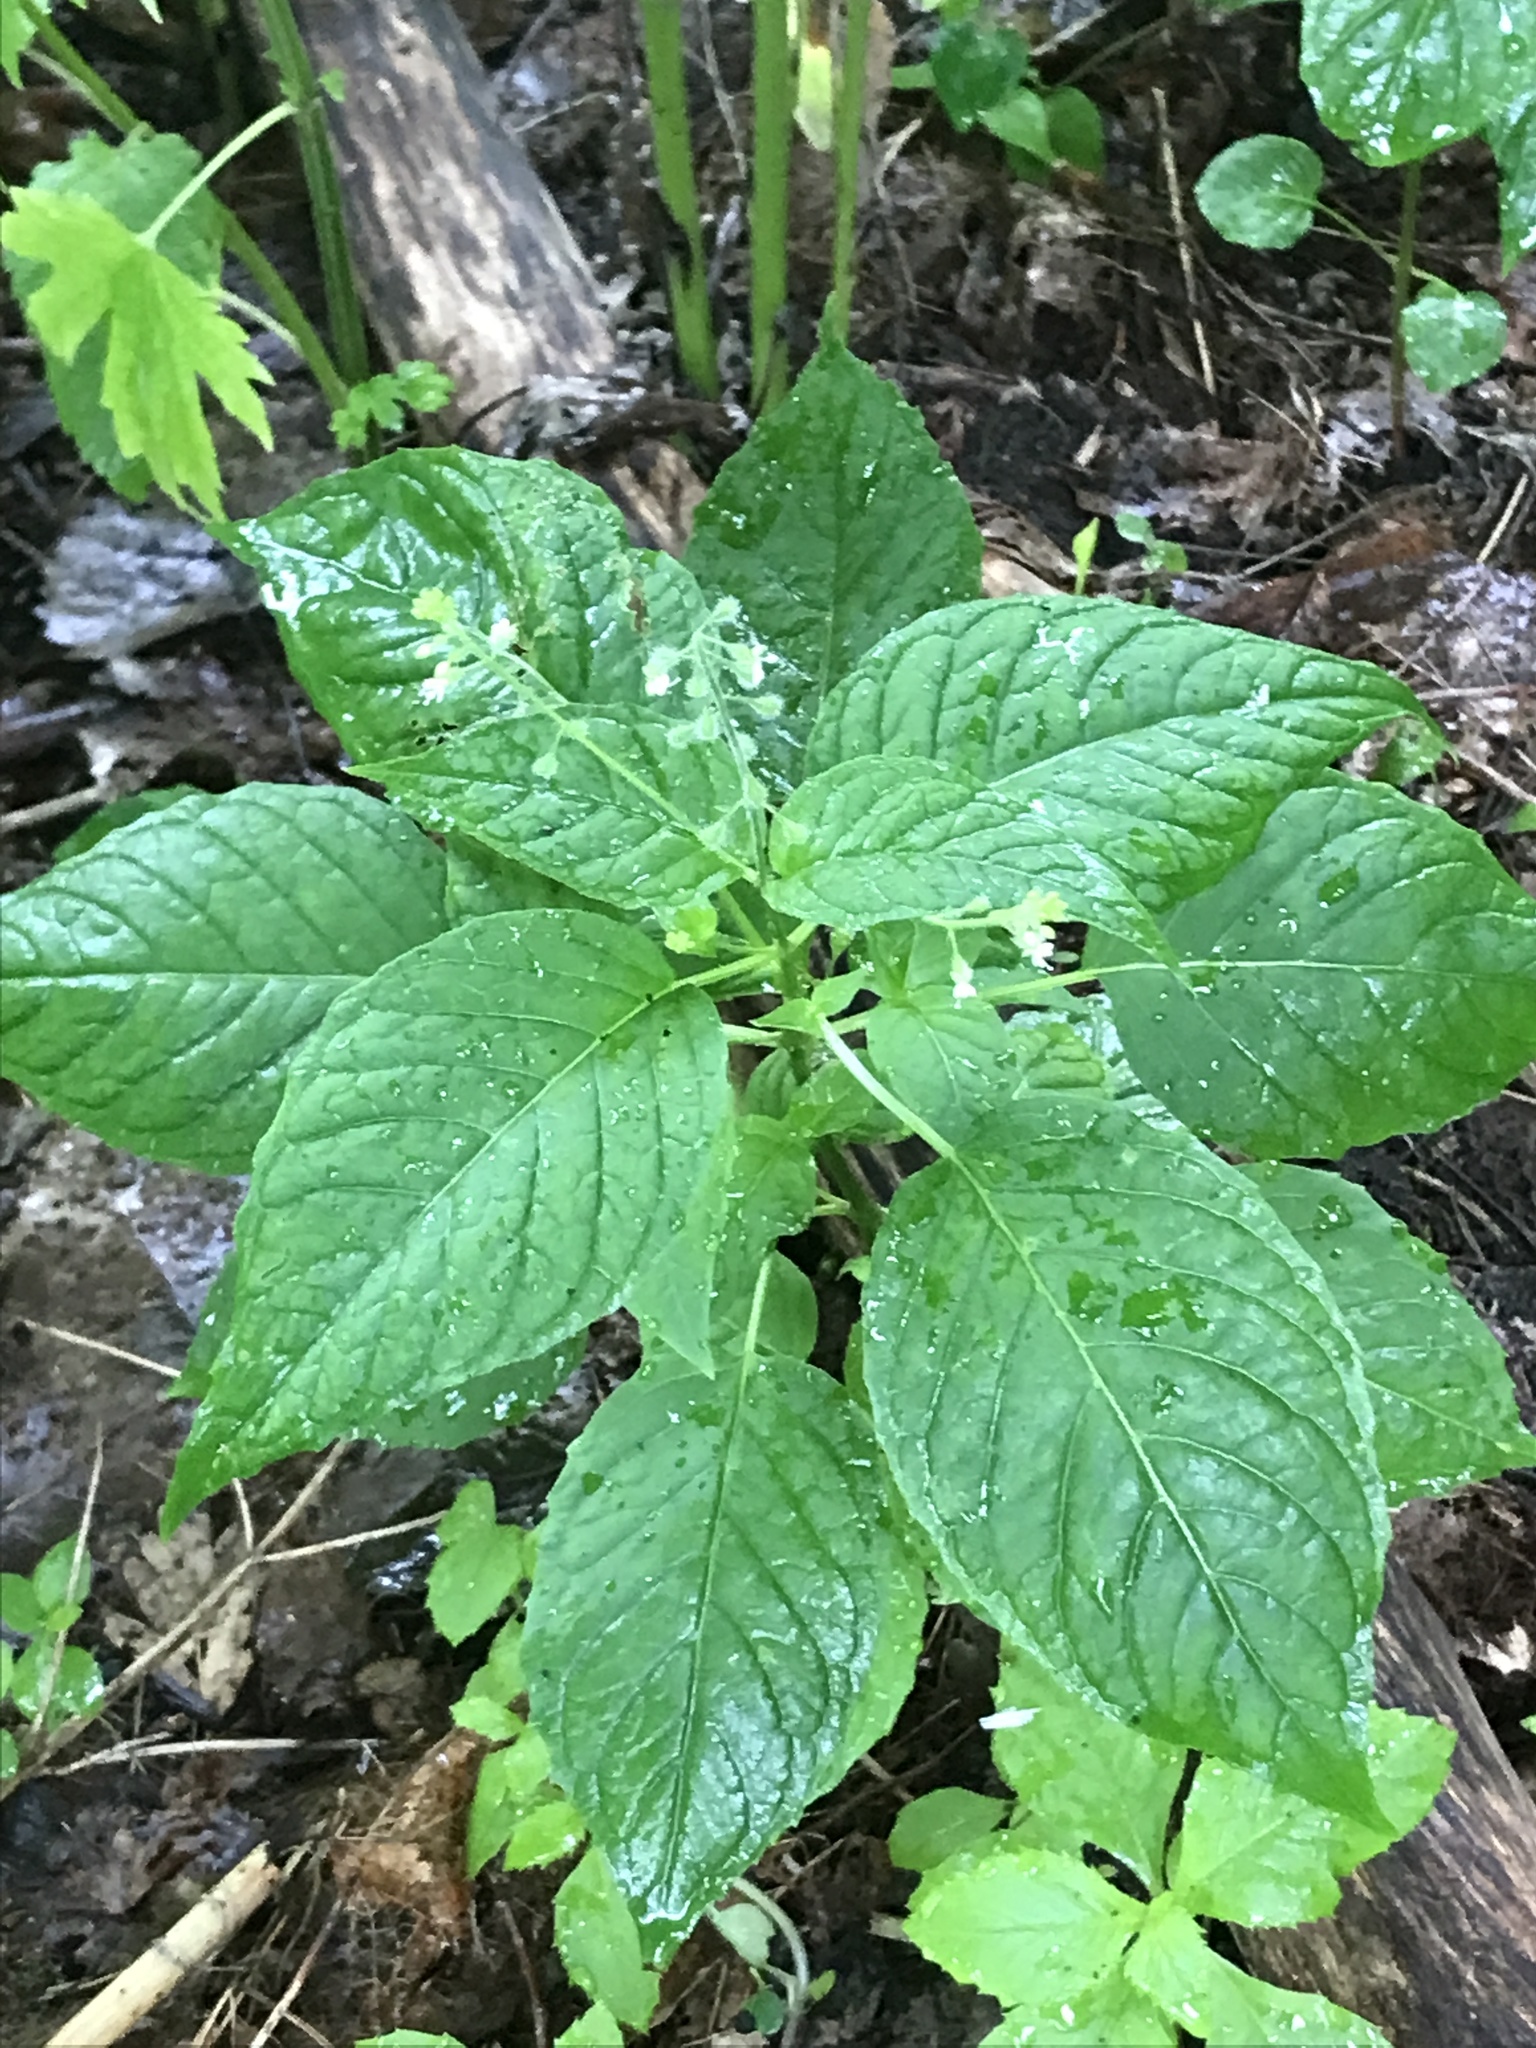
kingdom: Plantae
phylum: Tracheophyta
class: Magnoliopsida
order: Myrtales
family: Onagraceae
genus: Circaea
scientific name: Circaea canadensis
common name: Broad-leaved enchanter's nightshade
